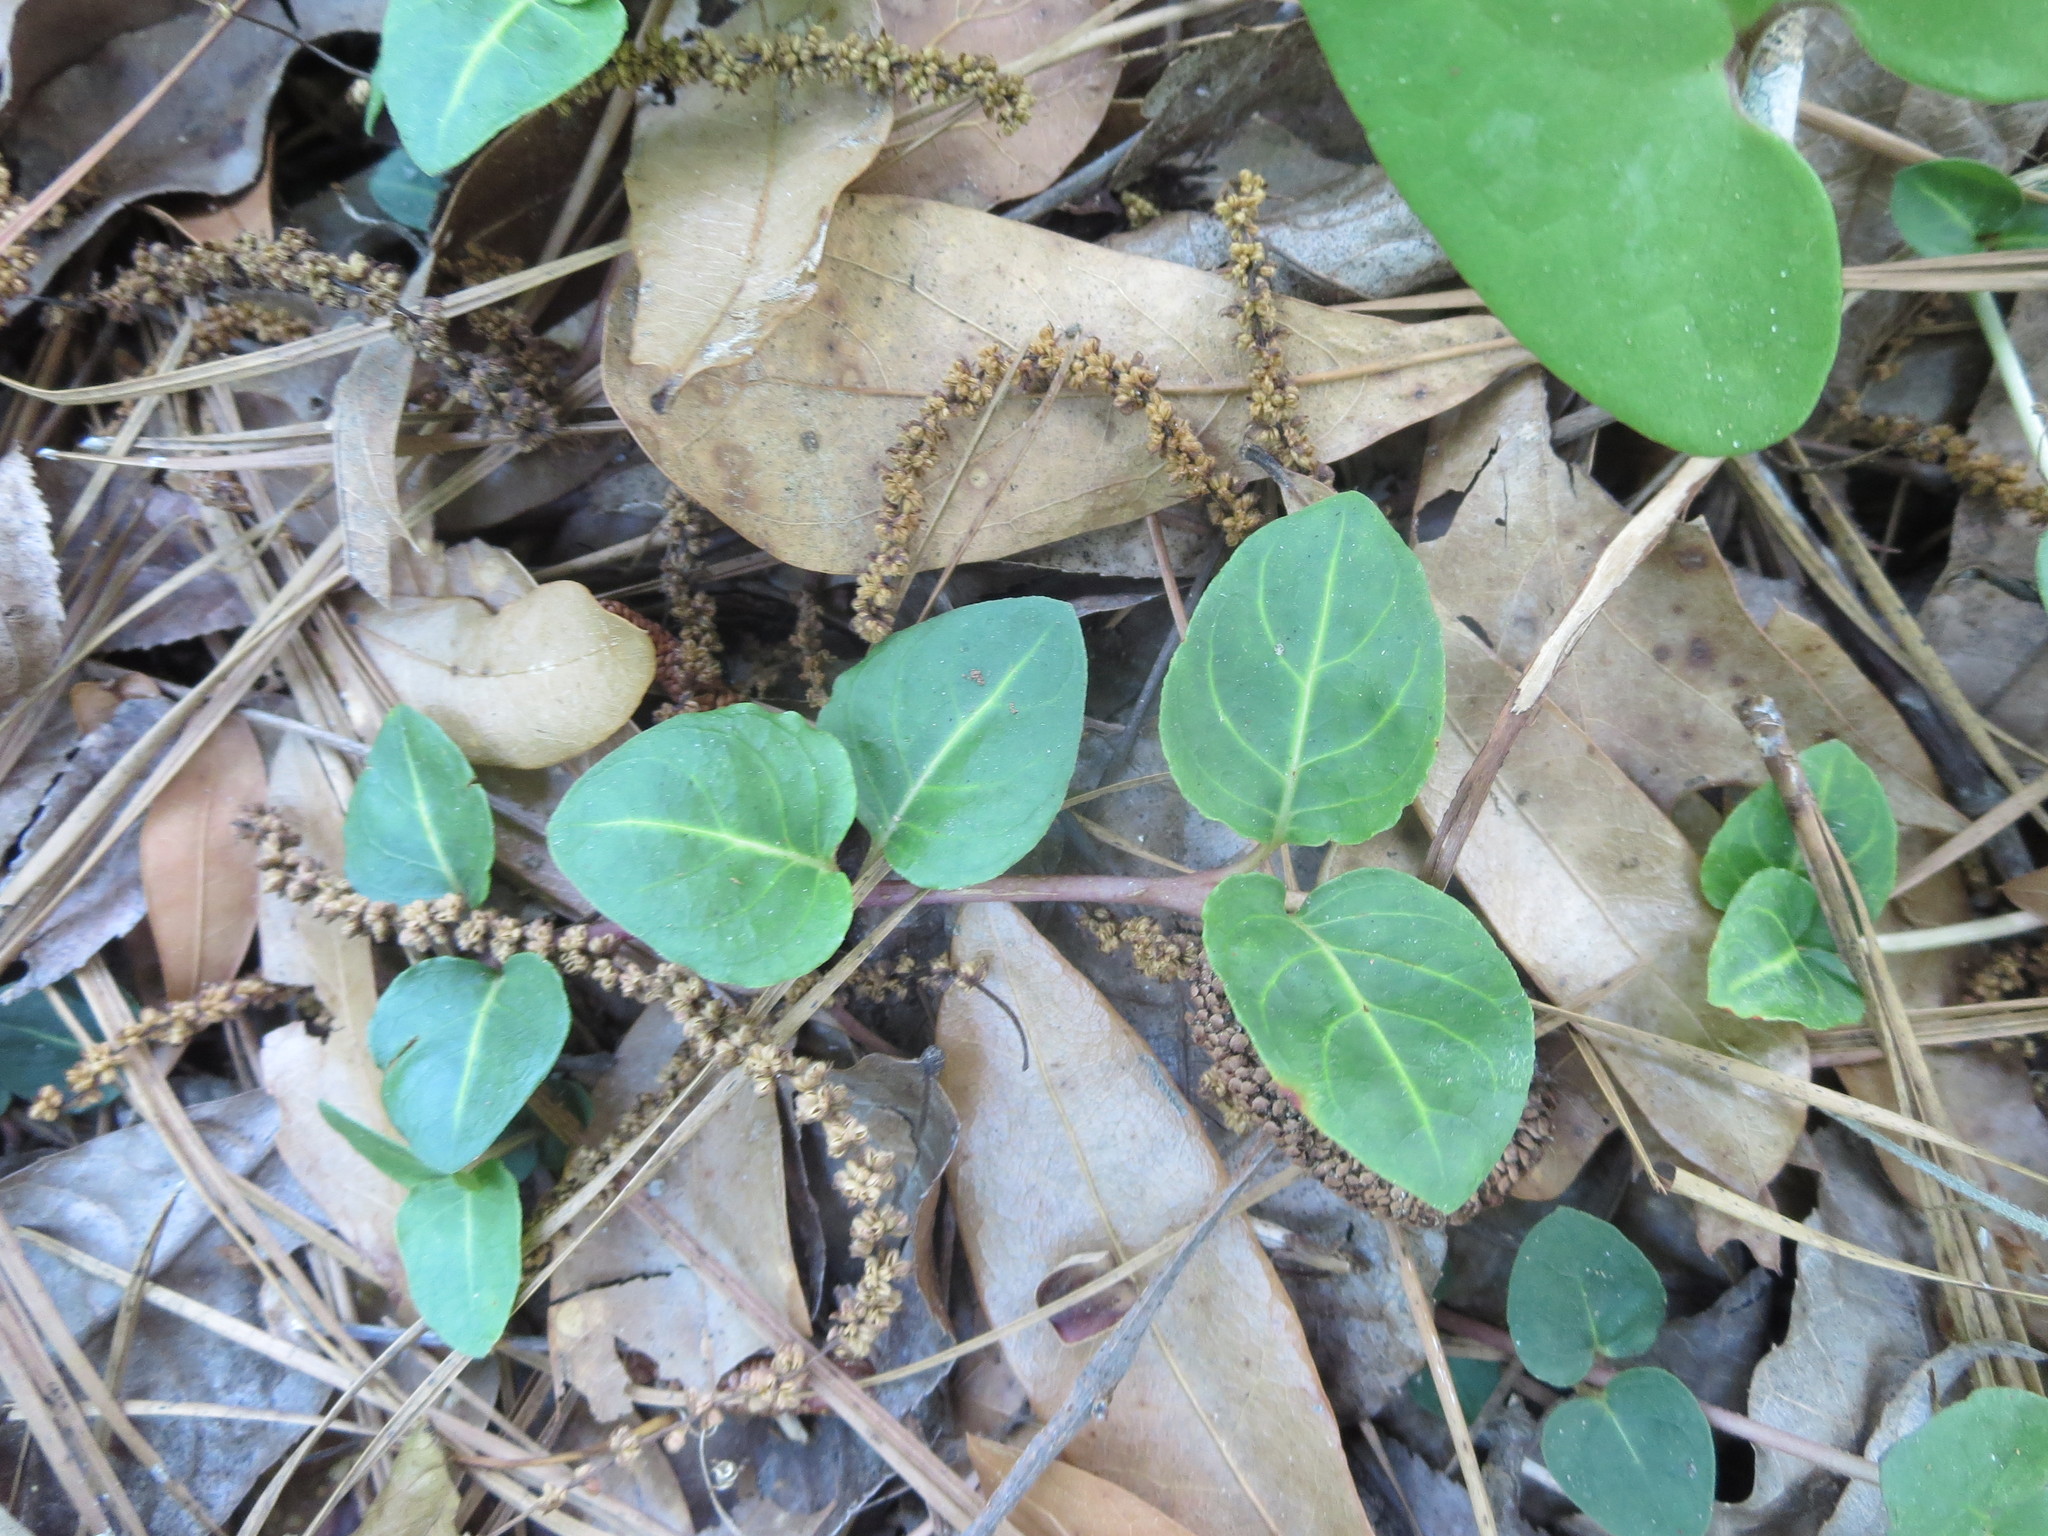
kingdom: Plantae
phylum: Tracheophyta
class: Magnoliopsida
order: Gentianales
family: Rubiaceae
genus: Mitchella
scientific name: Mitchella repens
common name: Partridge-berry
